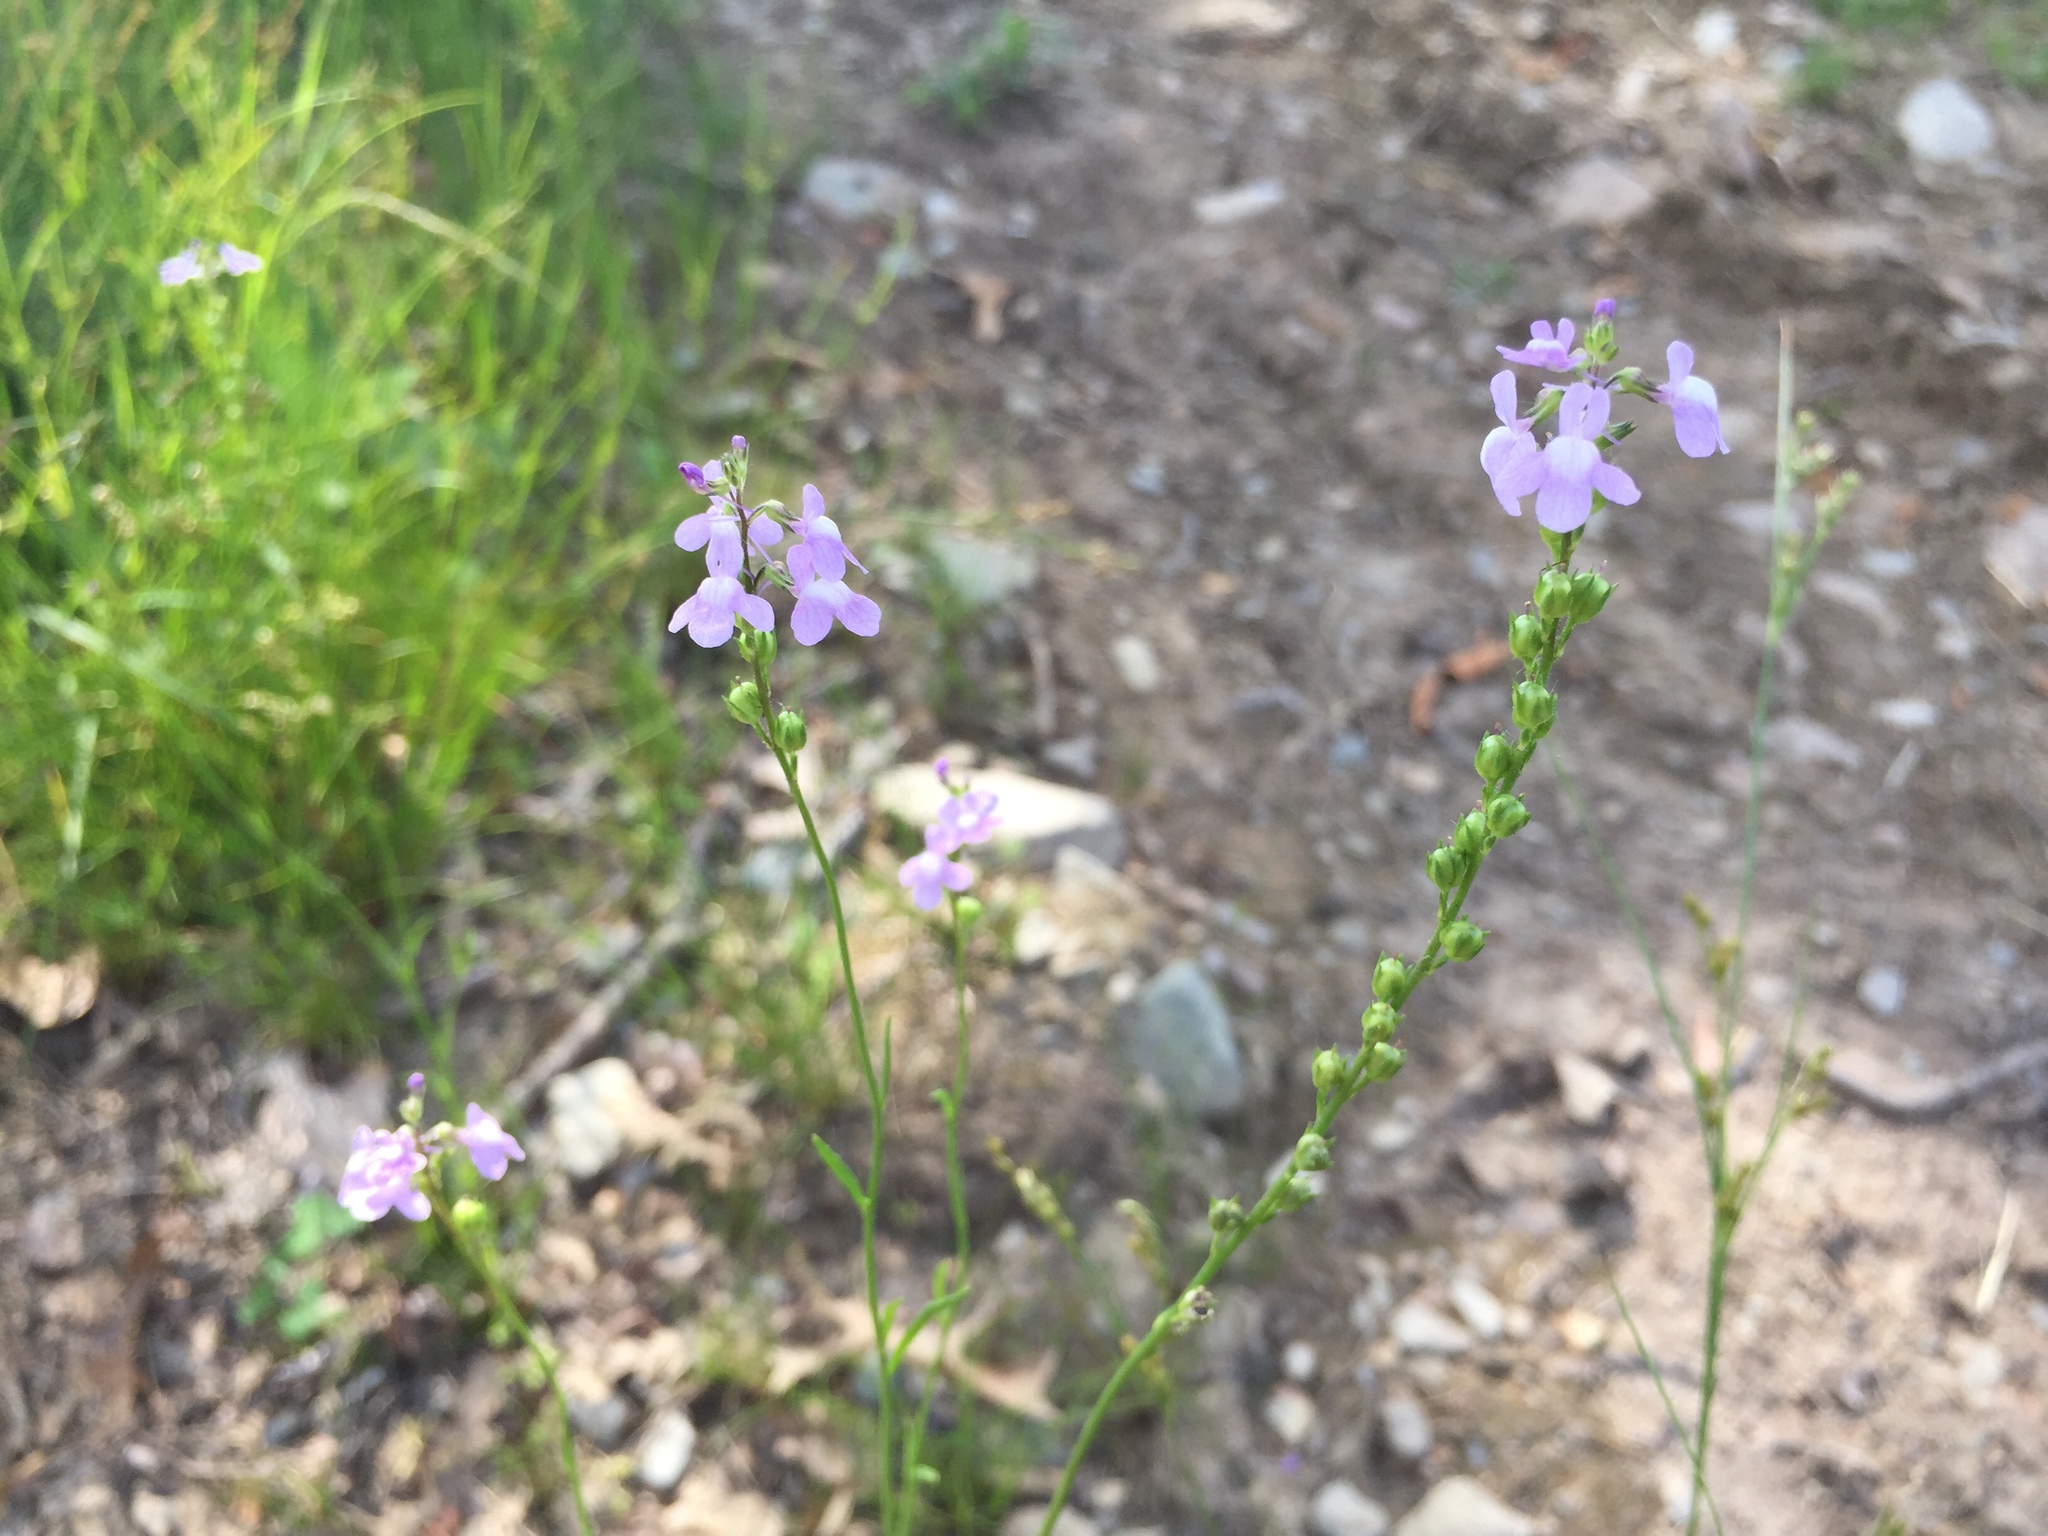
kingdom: Plantae
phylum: Tracheophyta
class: Magnoliopsida
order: Lamiales
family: Plantaginaceae
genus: Nuttallanthus
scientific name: Nuttallanthus canadensis
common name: Blue toadflax
